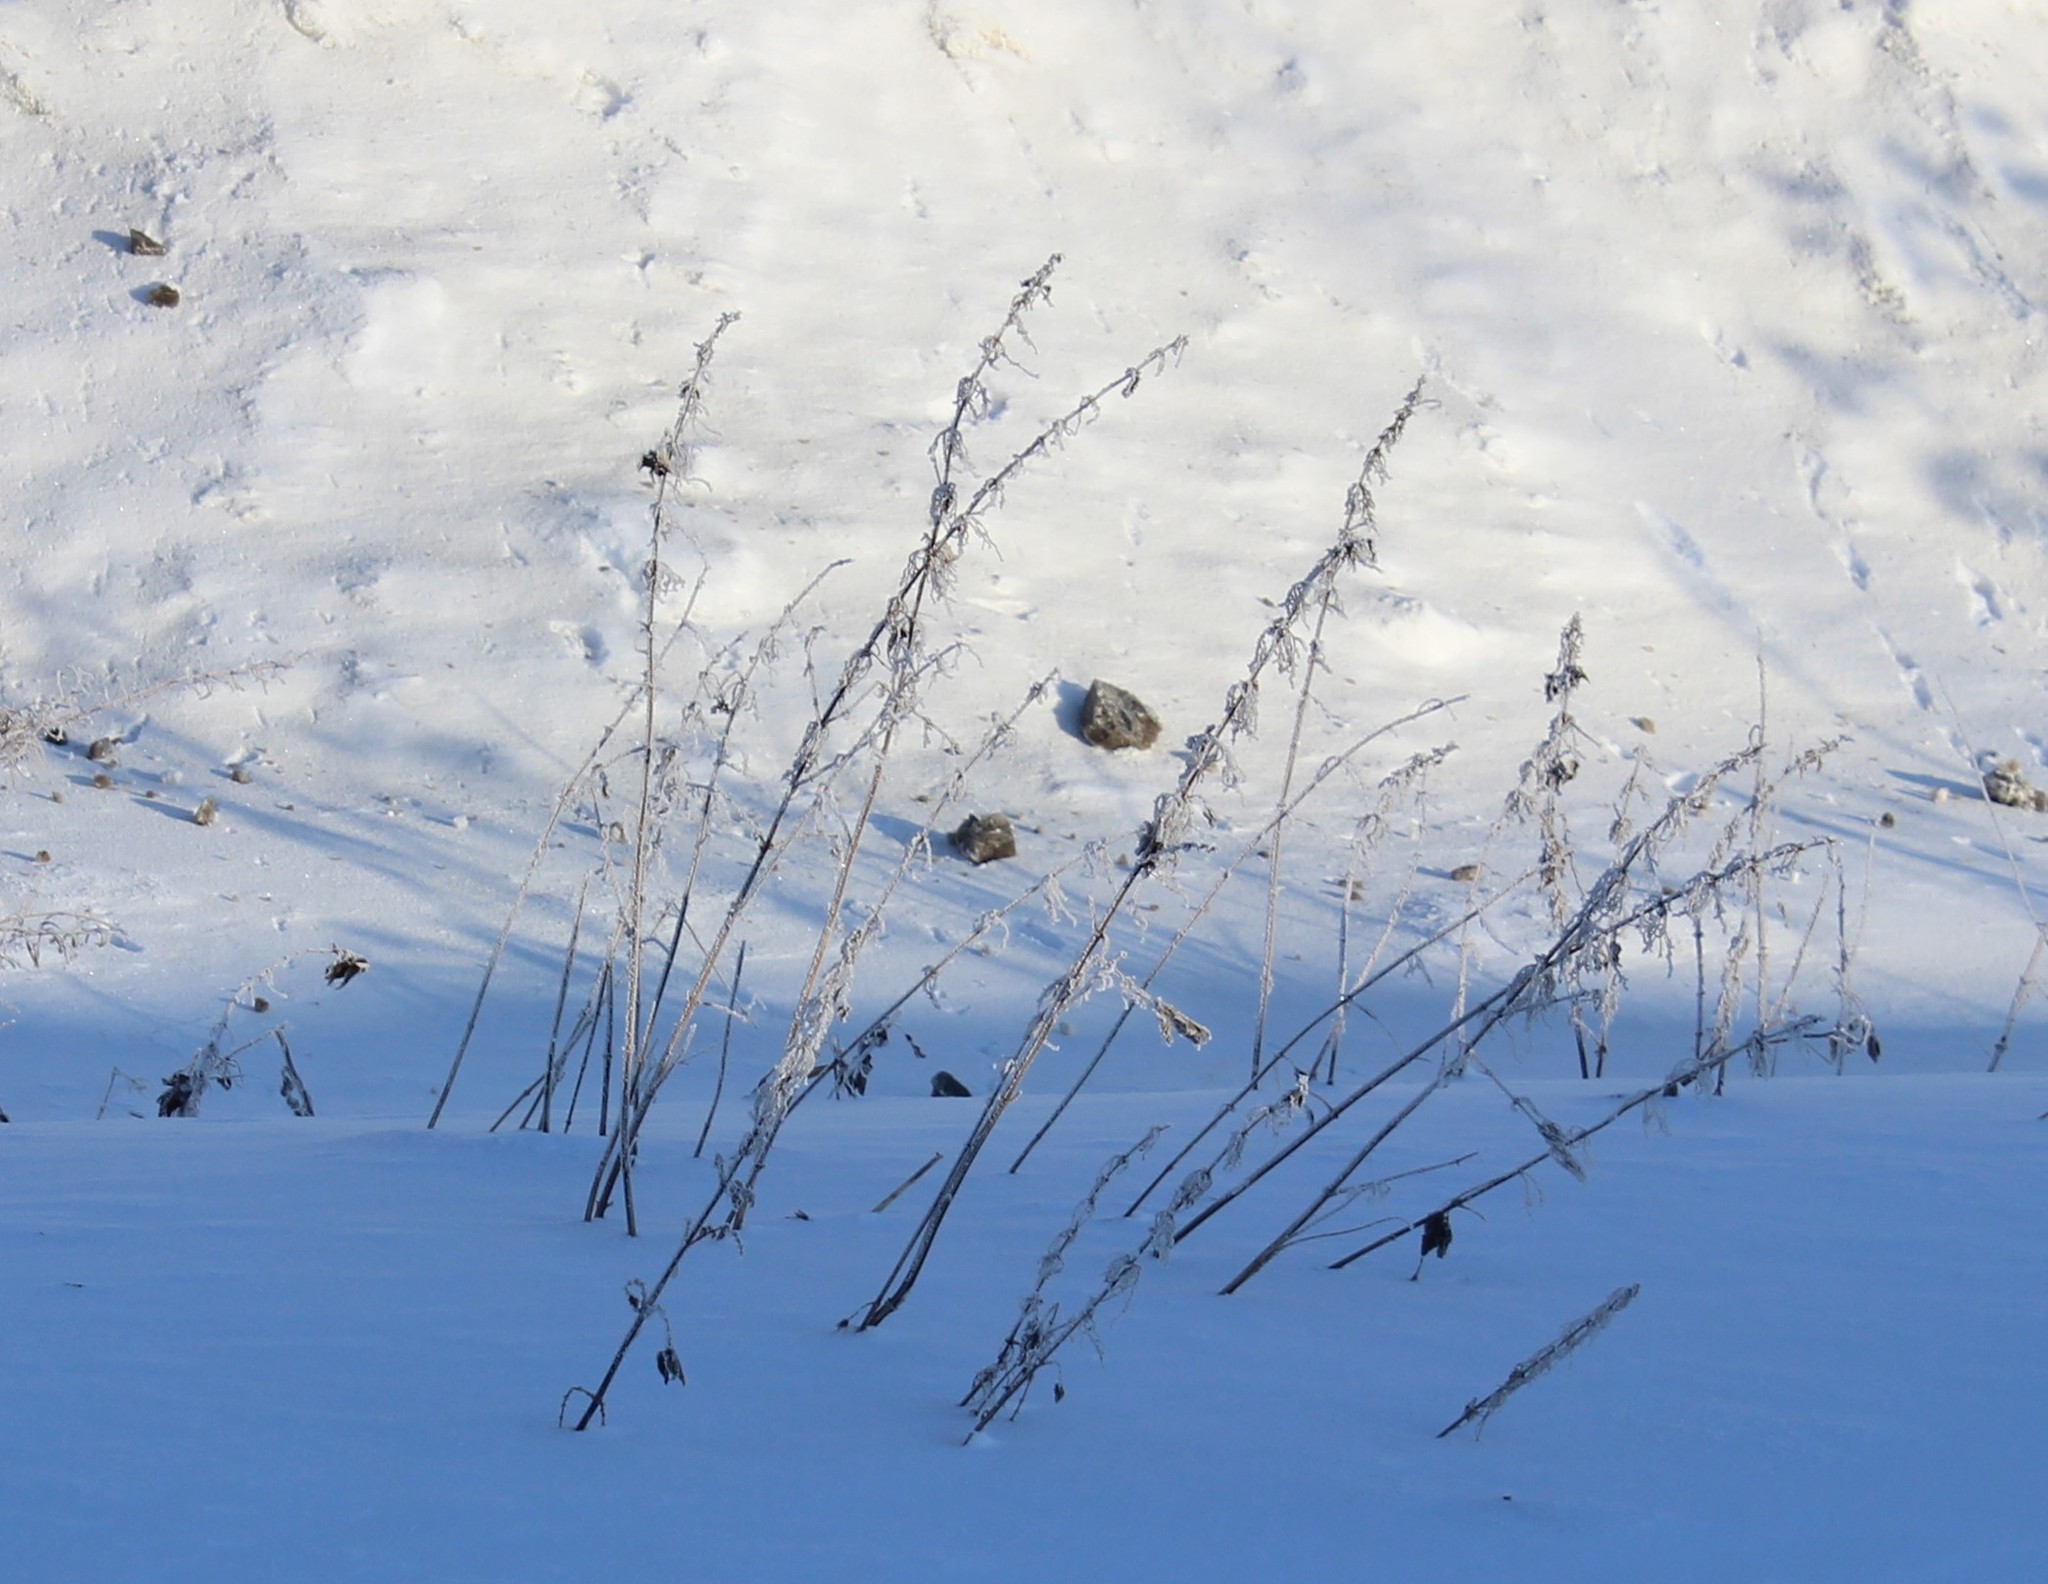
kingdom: Plantae
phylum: Tracheophyta
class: Magnoliopsida
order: Rosales
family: Urticaceae
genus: Urtica
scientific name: Urtica dioica
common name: Common nettle
